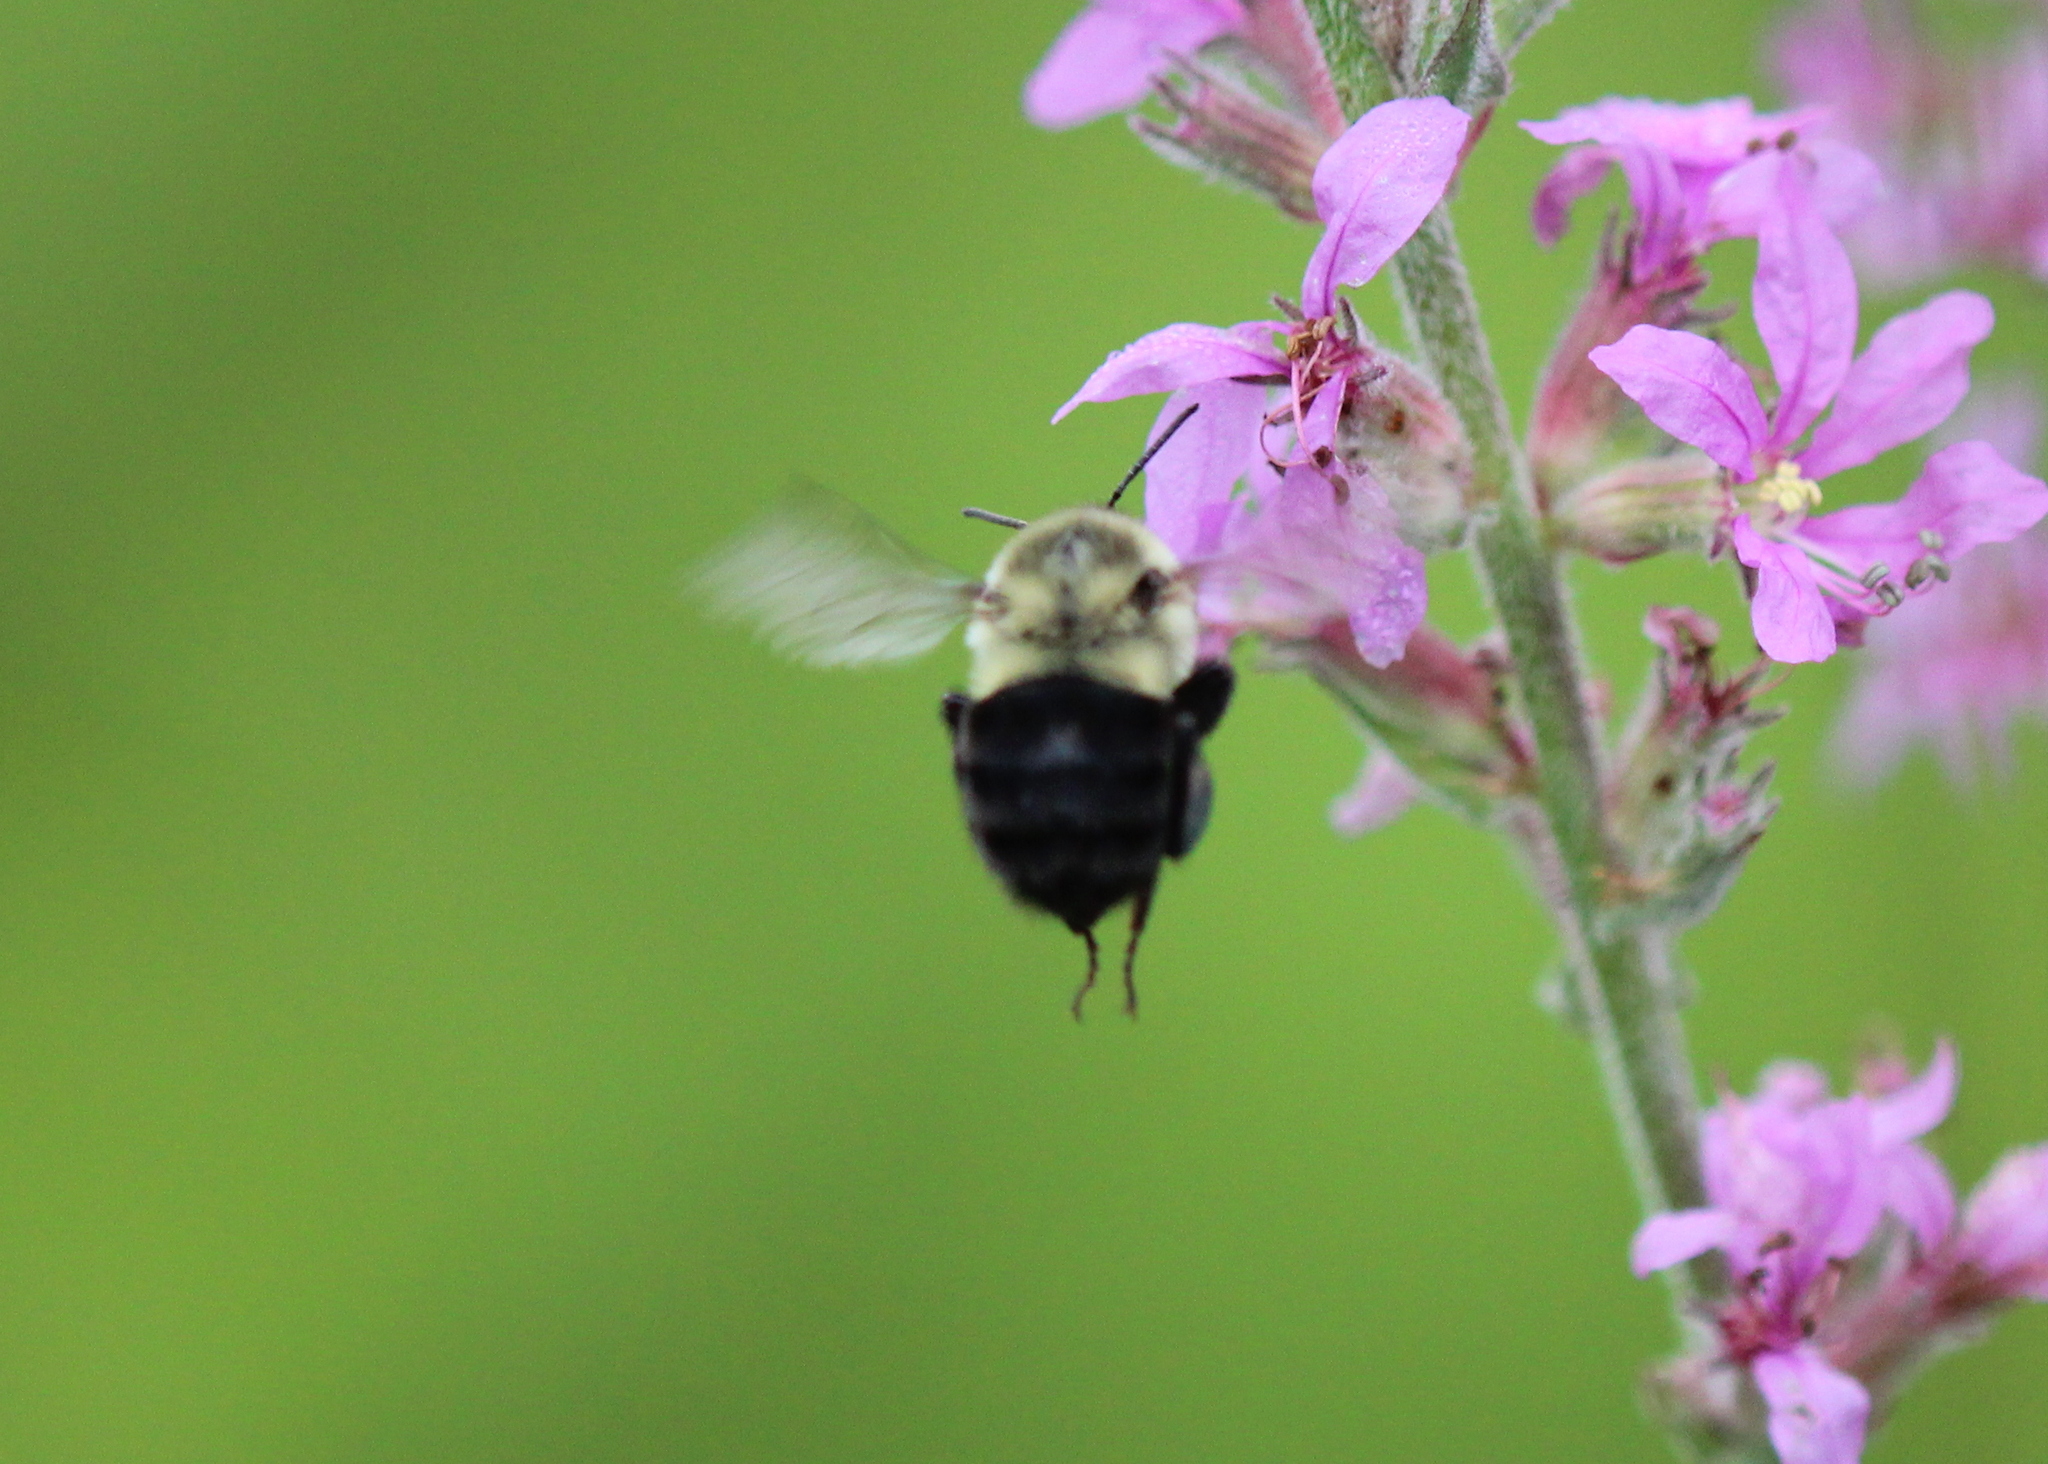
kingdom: Animalia
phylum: Arthropoda
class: Insecta
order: Hymenoptera
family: Apidae
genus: Bombus
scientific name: Bombus impatiens
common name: Common eastern bumble bee
